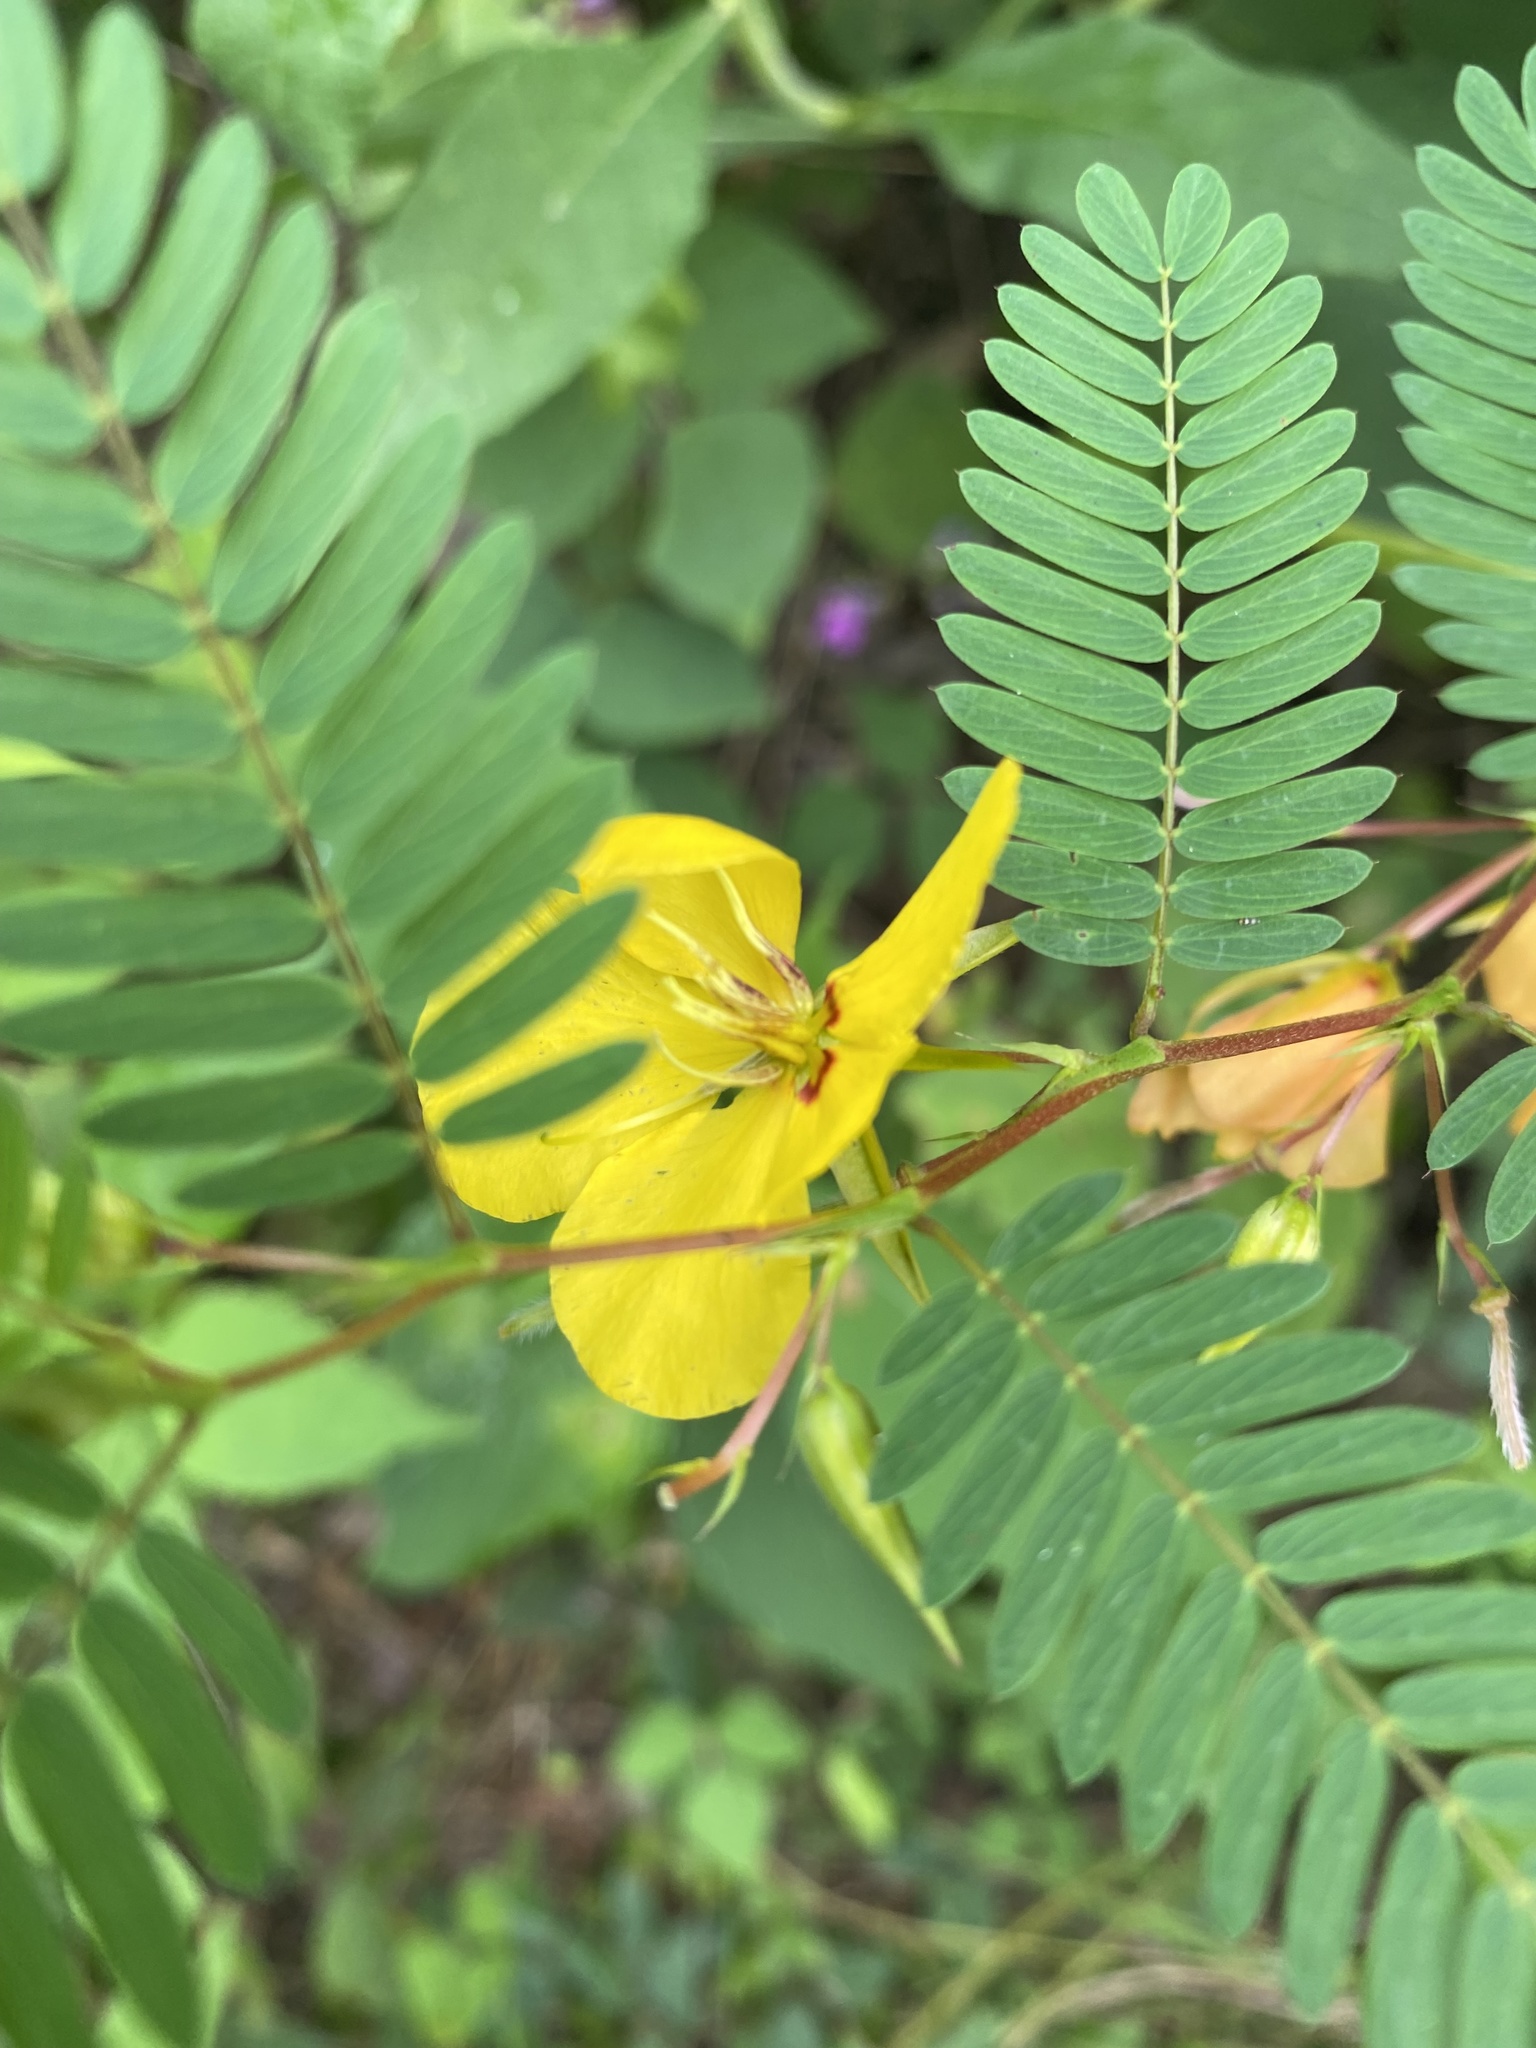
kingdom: Plantae
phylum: Tracheophyta
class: Magnoliopsida
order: Fabales
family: Fabaceae
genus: Chamaecrista
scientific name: Chamaecrista fasciculata
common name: Golden cassia
